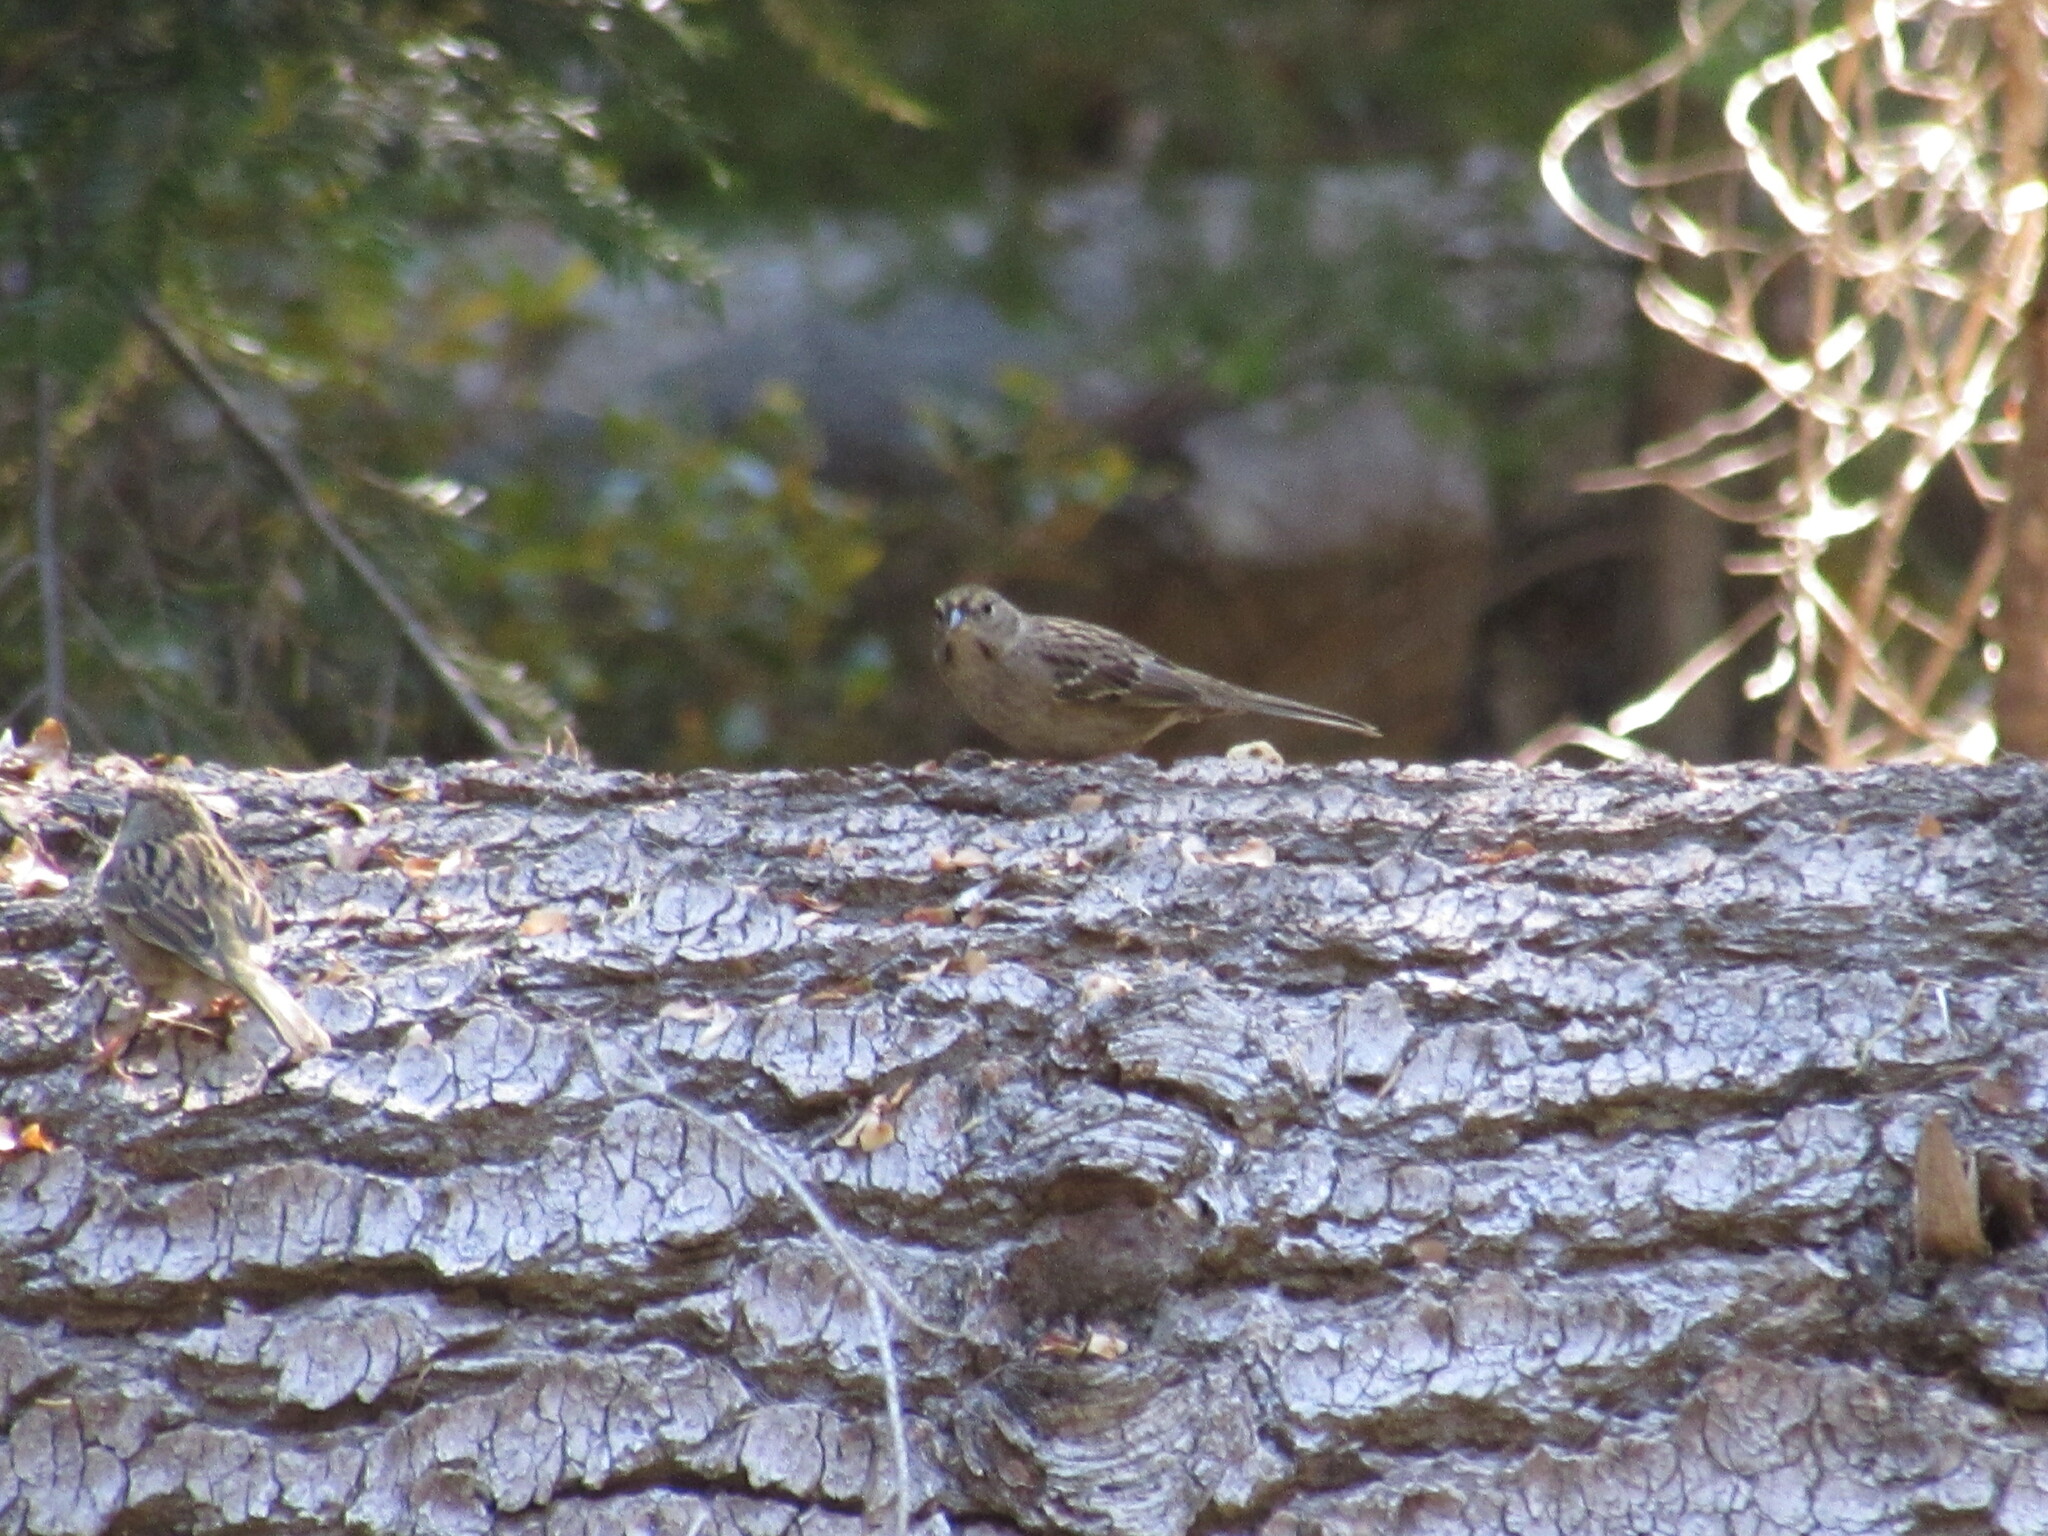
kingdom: Animalia
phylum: Chordata
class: Aves
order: Passeriformes
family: Passerellidae
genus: Zonotrichia
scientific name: Zonotrichia atricapilla
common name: Golden-crowned sparrow
